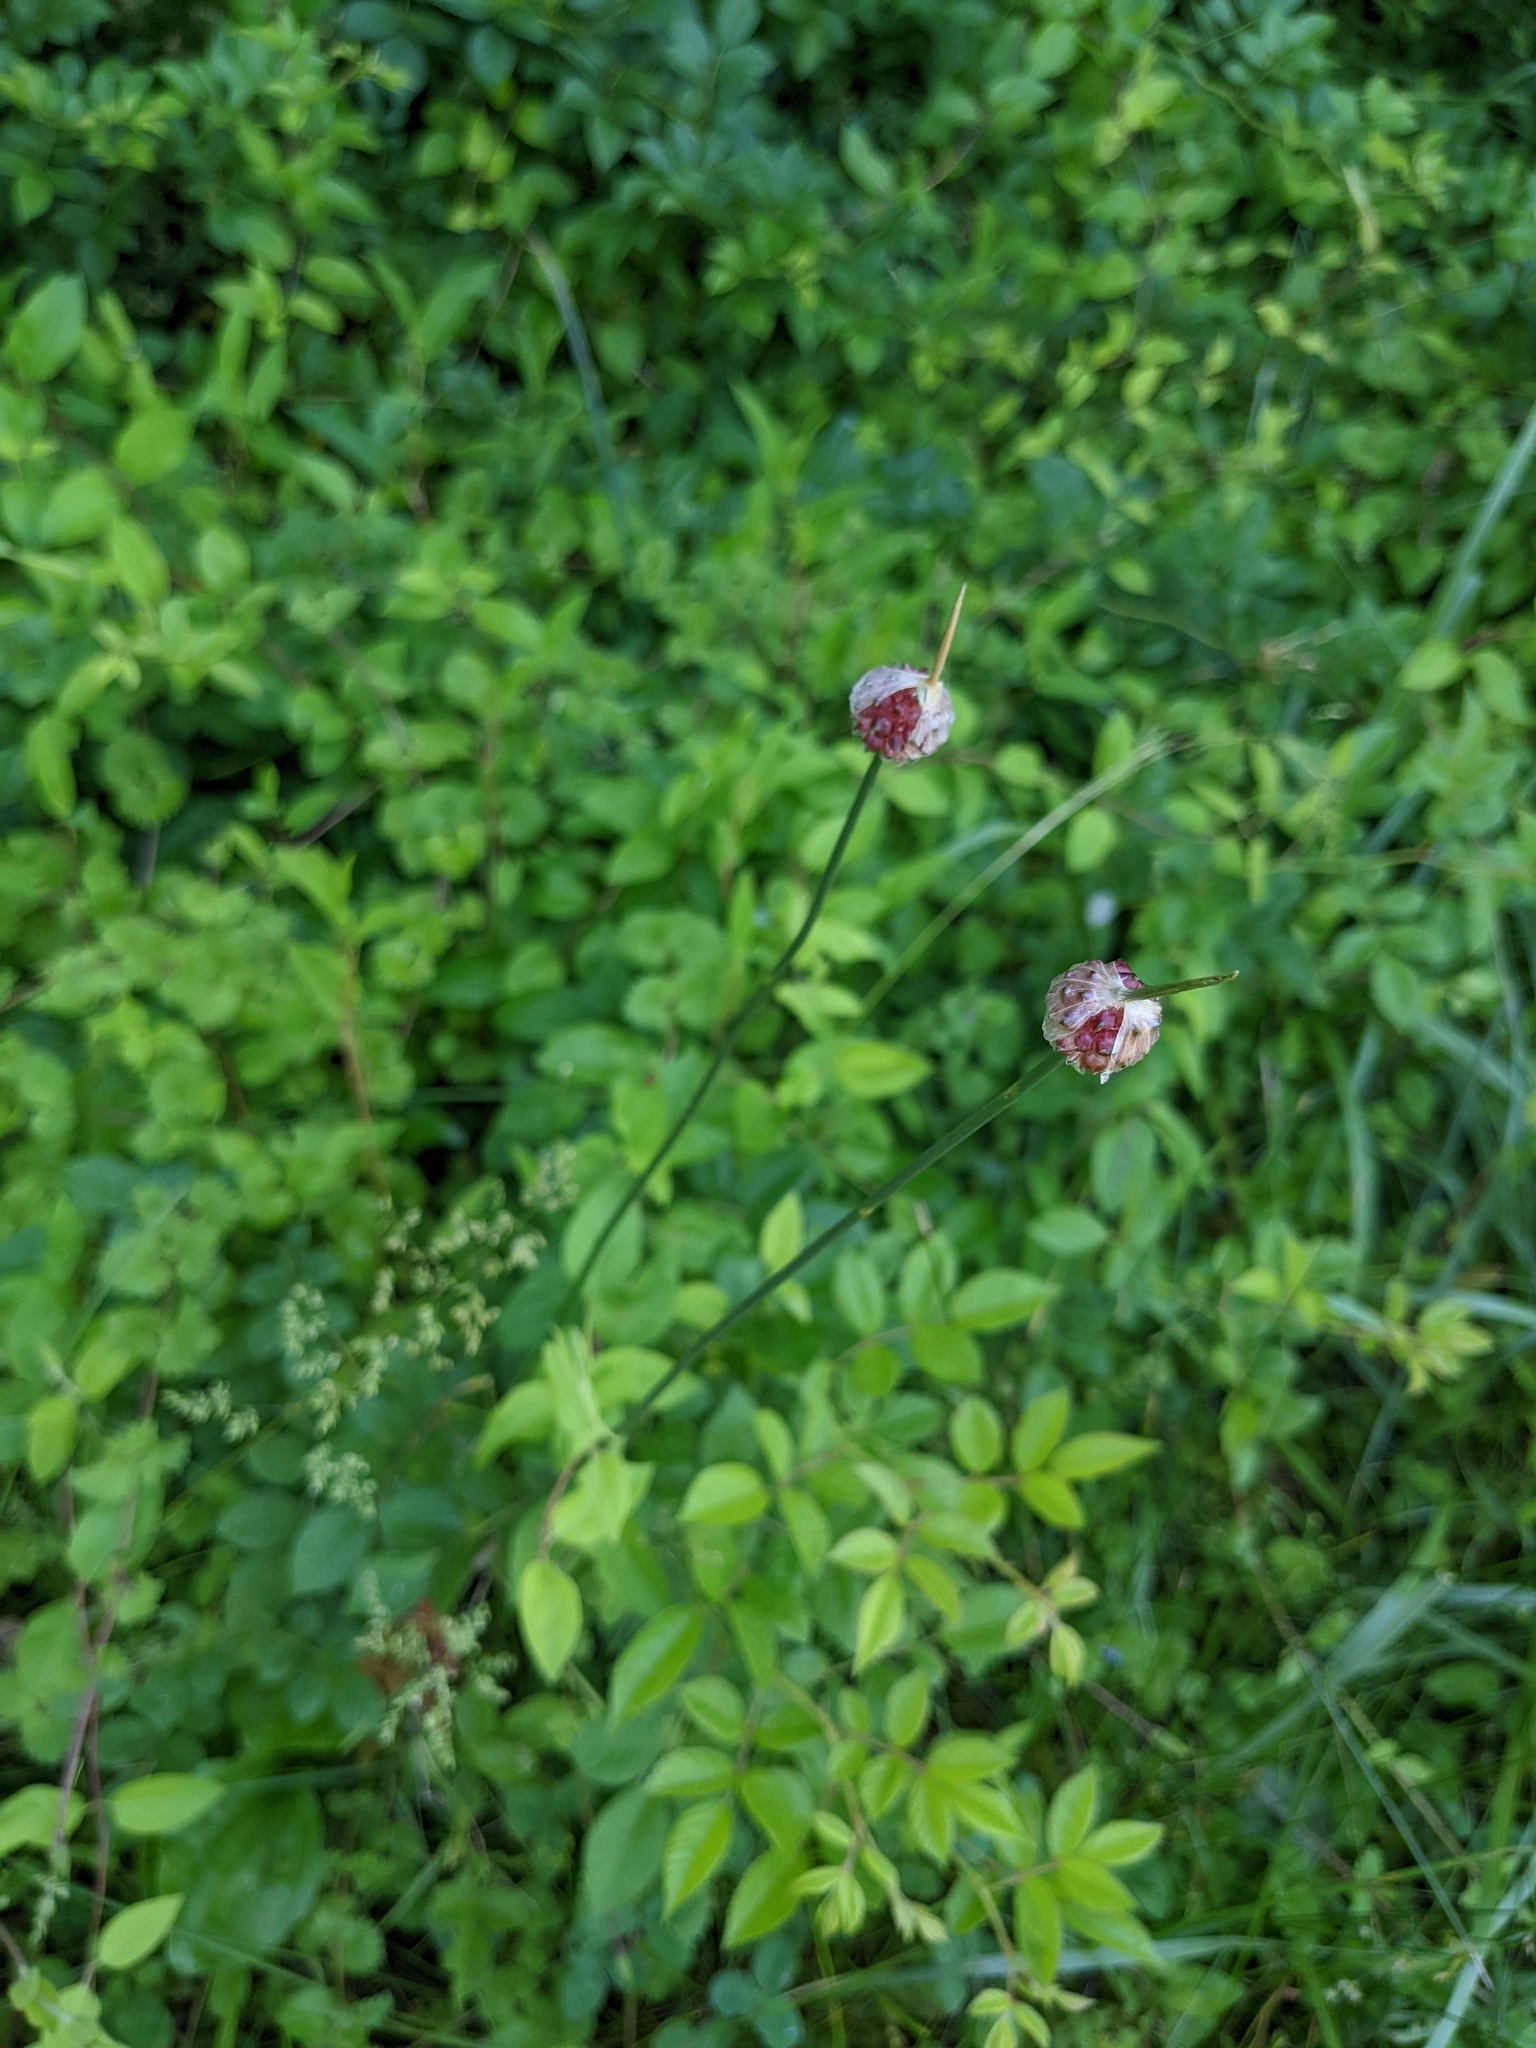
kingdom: Plantae
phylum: Tracheophyta
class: Liliopsida
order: Asparagales
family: Amaryllidaceae
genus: Allium
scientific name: Allium vineale
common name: Crow garlic
